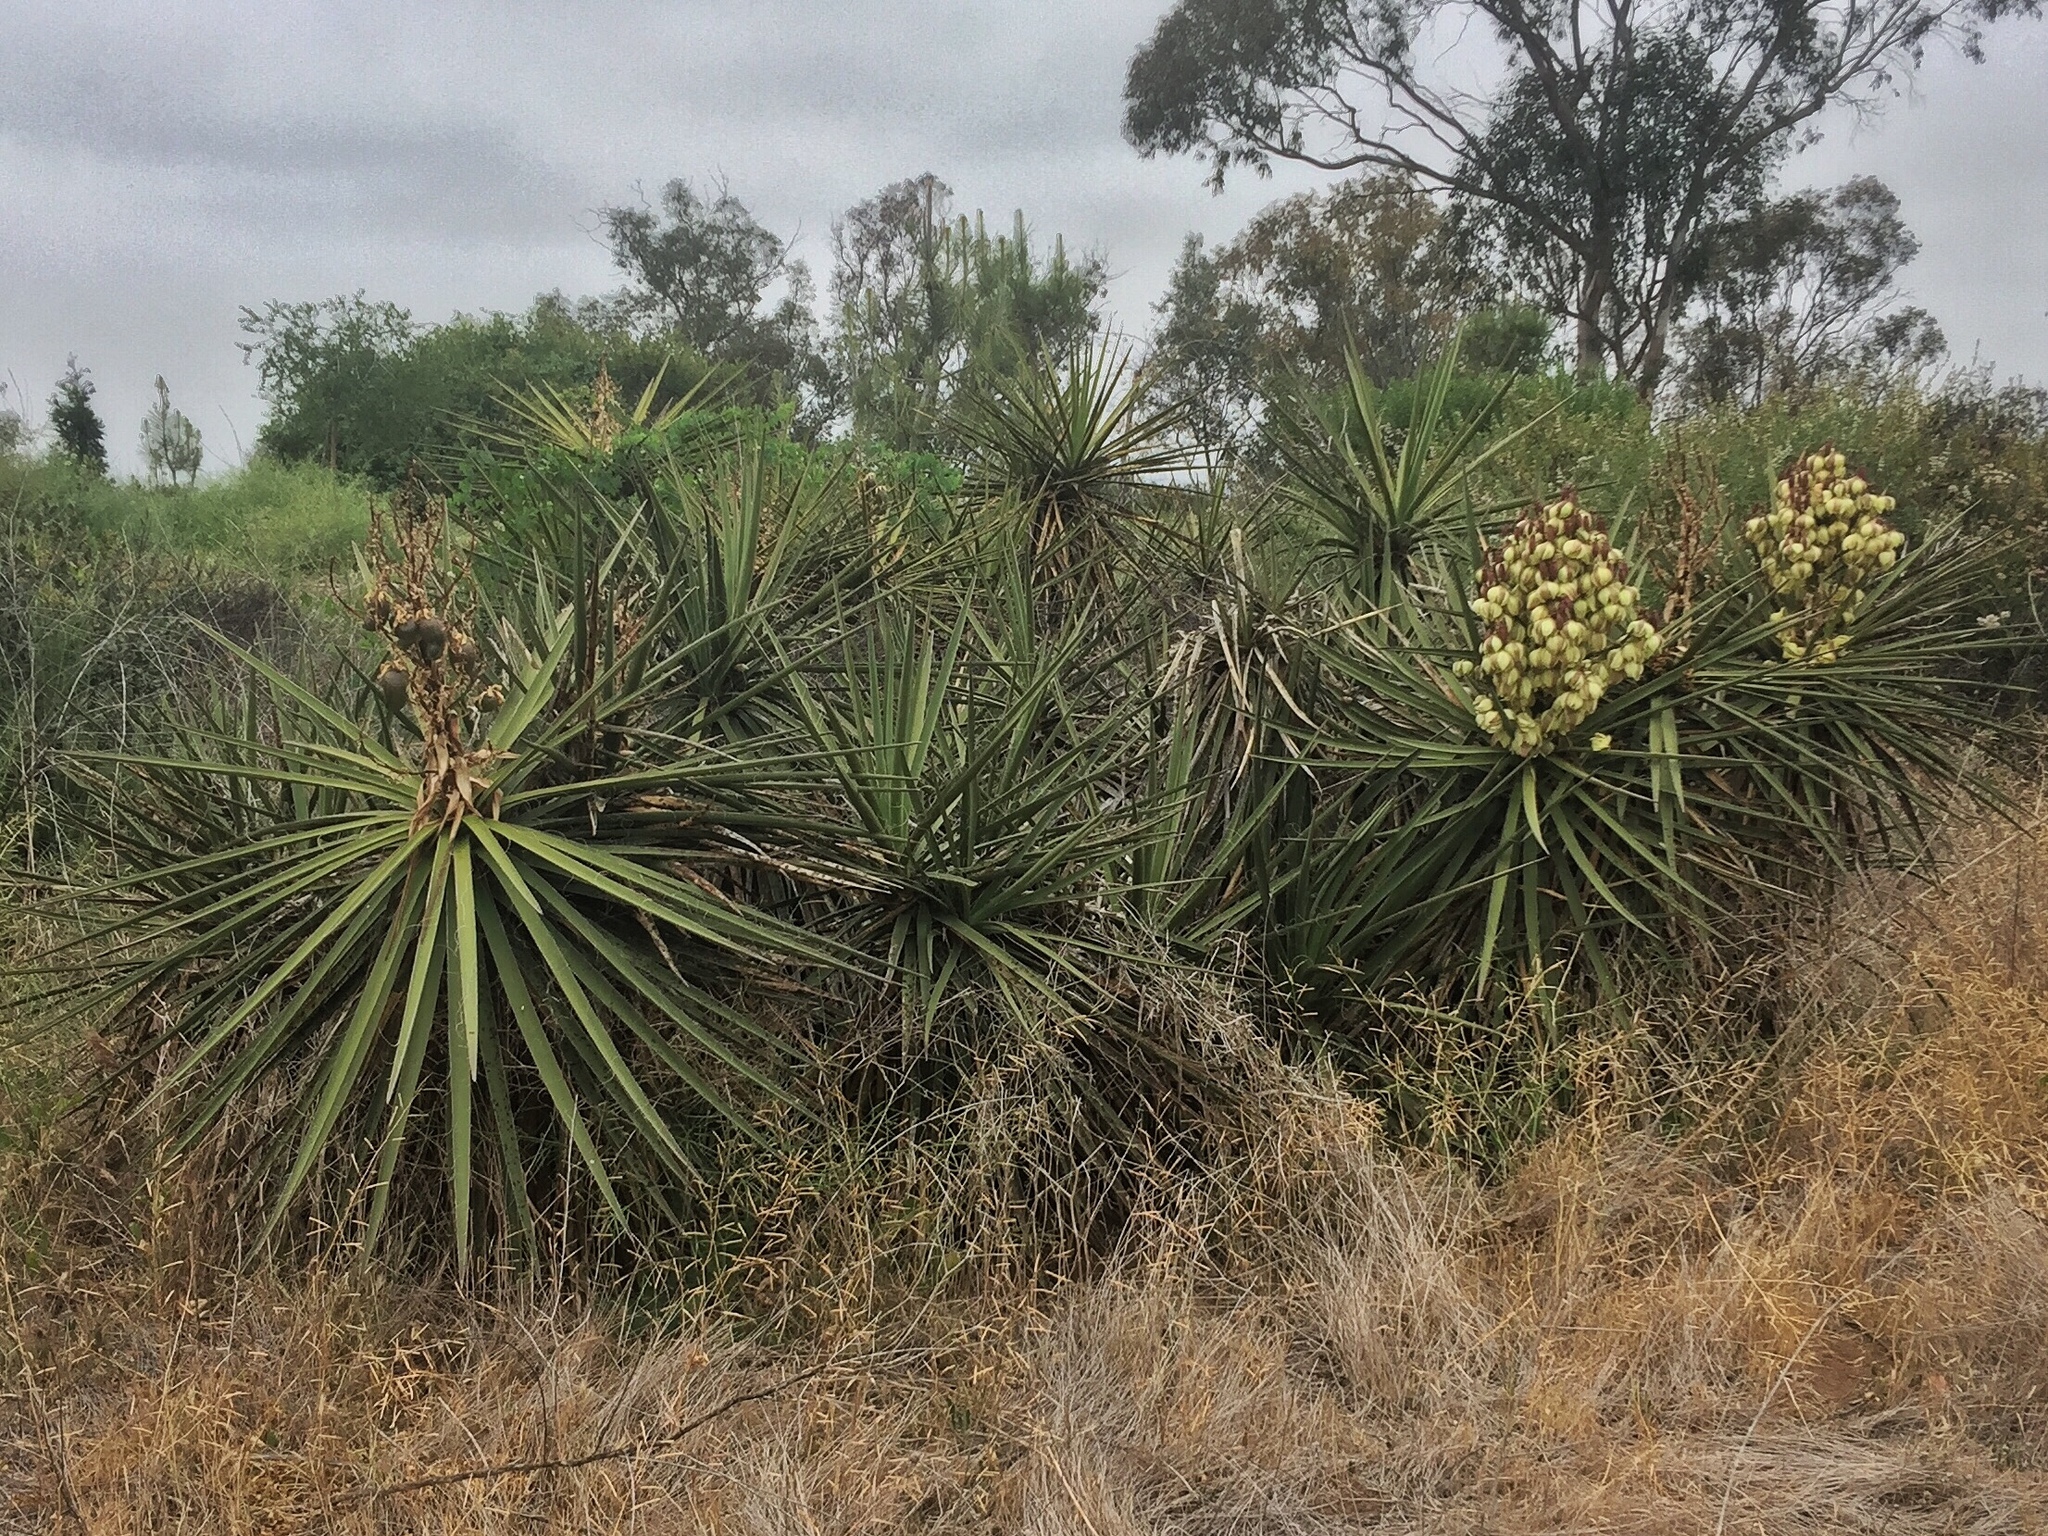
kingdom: Plantae
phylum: Tracheophyta
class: Liliopsida
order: Asparagales
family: Asparagaceae
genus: Yucca
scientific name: Yucca schidigera
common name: Mojave yucca
